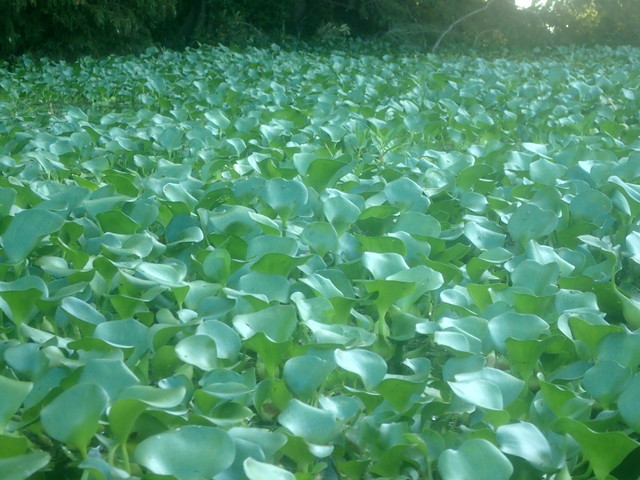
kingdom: Plantae
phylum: Tracheophyta
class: Liliopsida
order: Commelinales
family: Pontederiaceae
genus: Pontederia
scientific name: Pontederia crassipes
